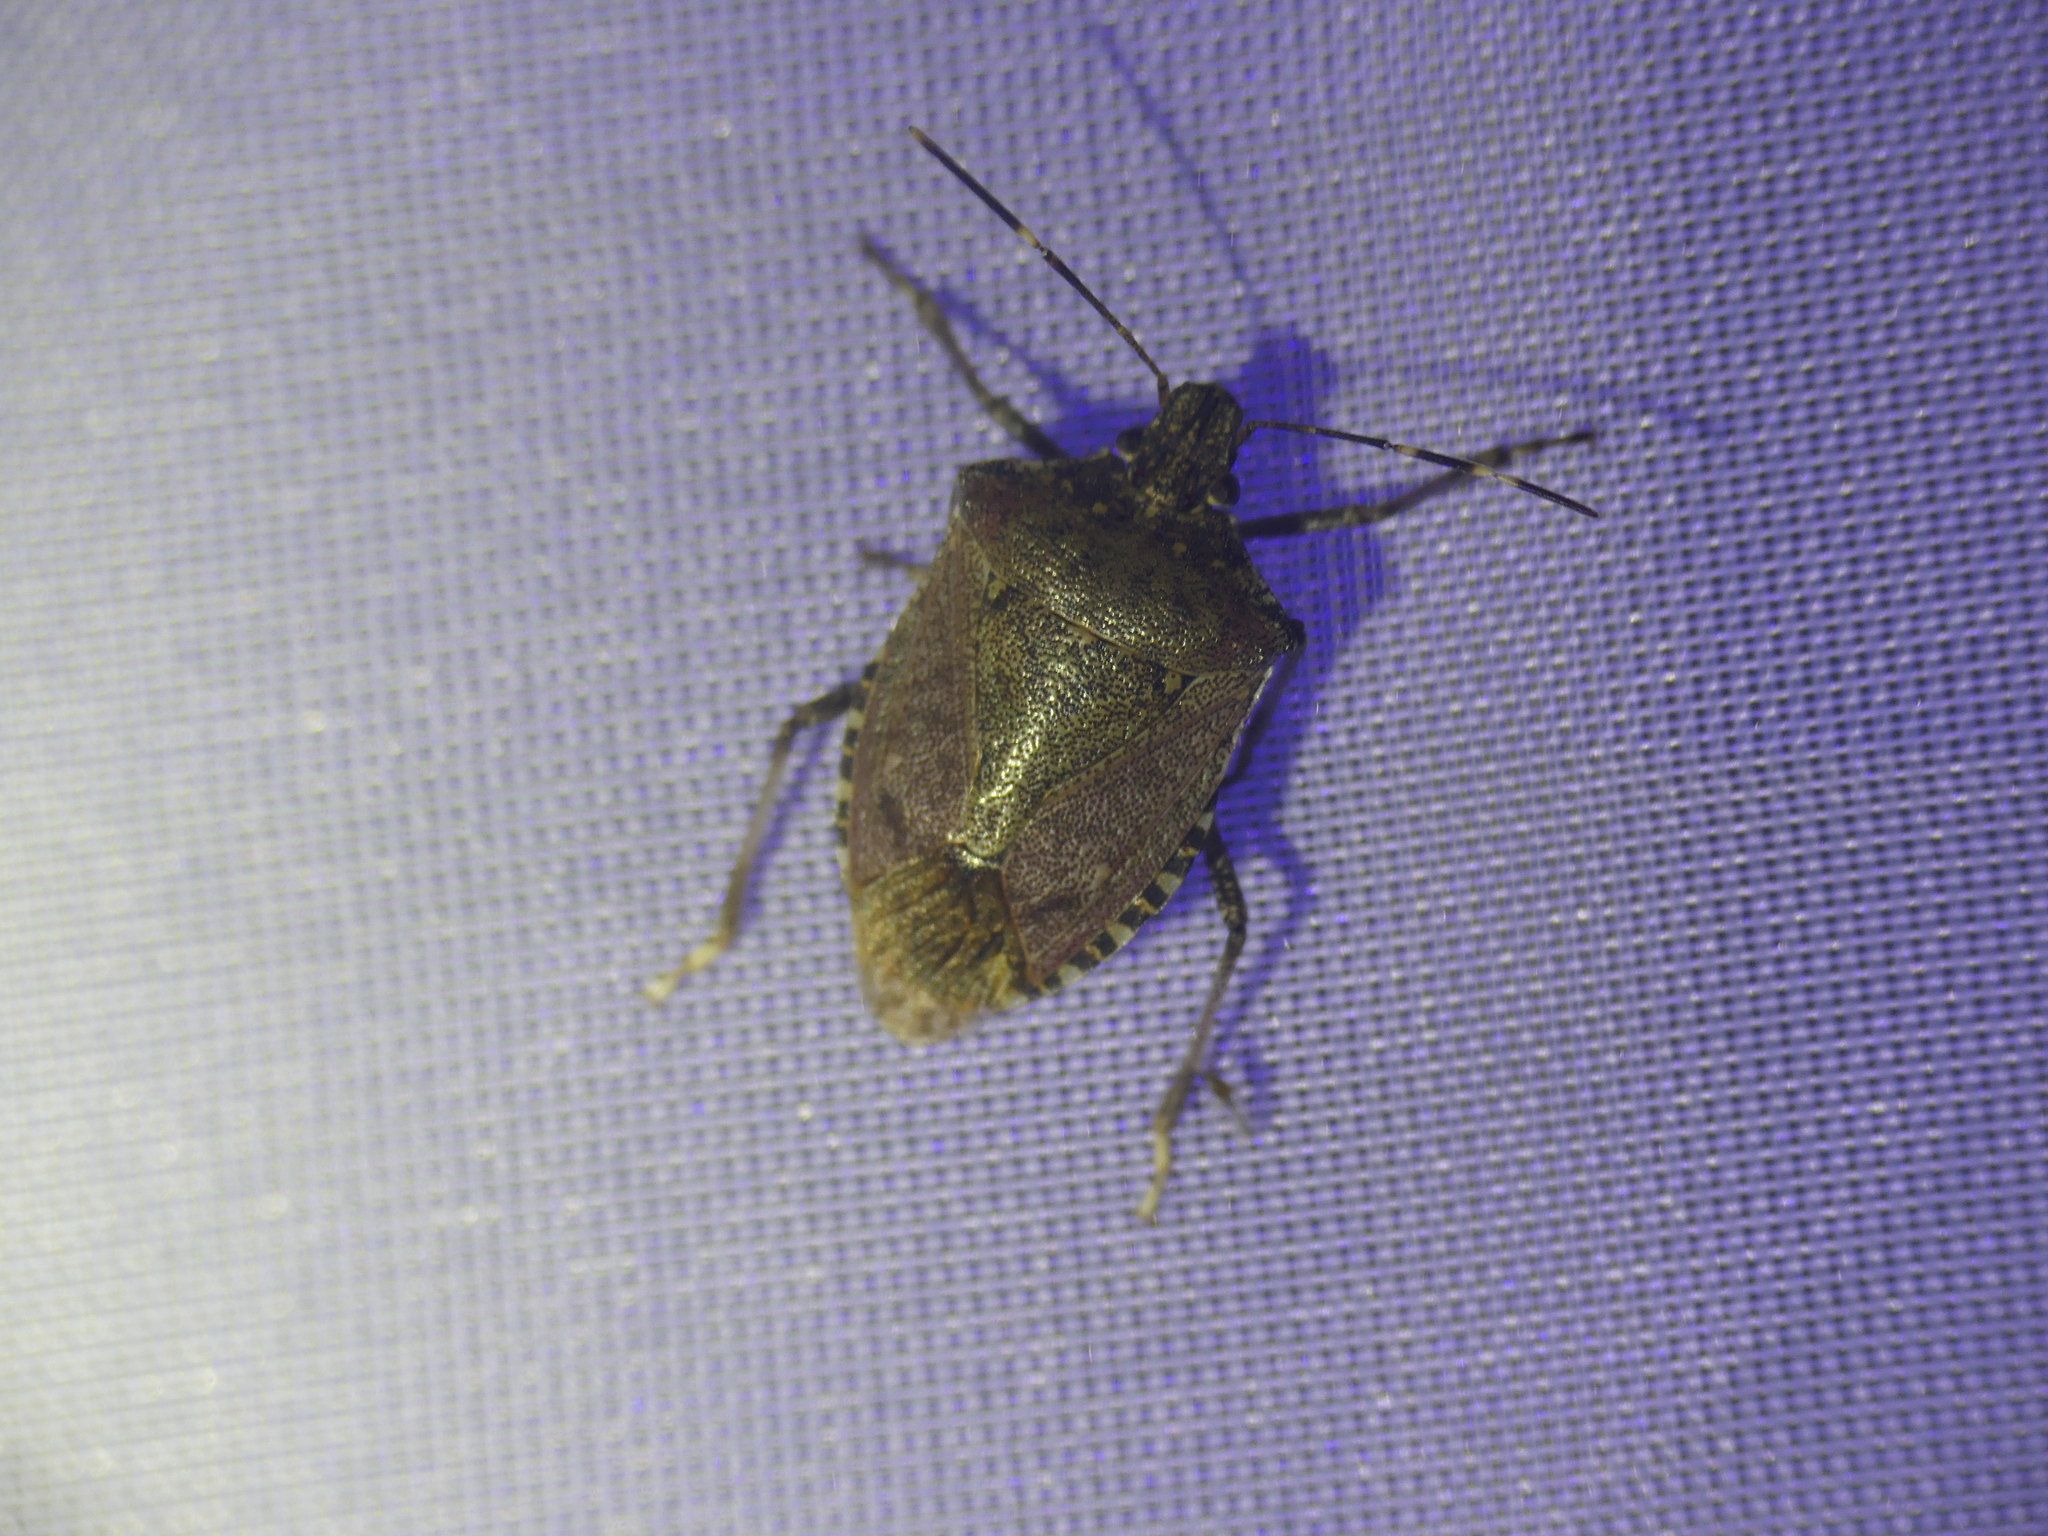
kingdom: Animalia
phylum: Arthropoda
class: Insecta
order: Hemiptera
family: Pentatomidae
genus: Halyomorpha
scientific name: Halyomorpha halys
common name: Brown marmorated stink bug
